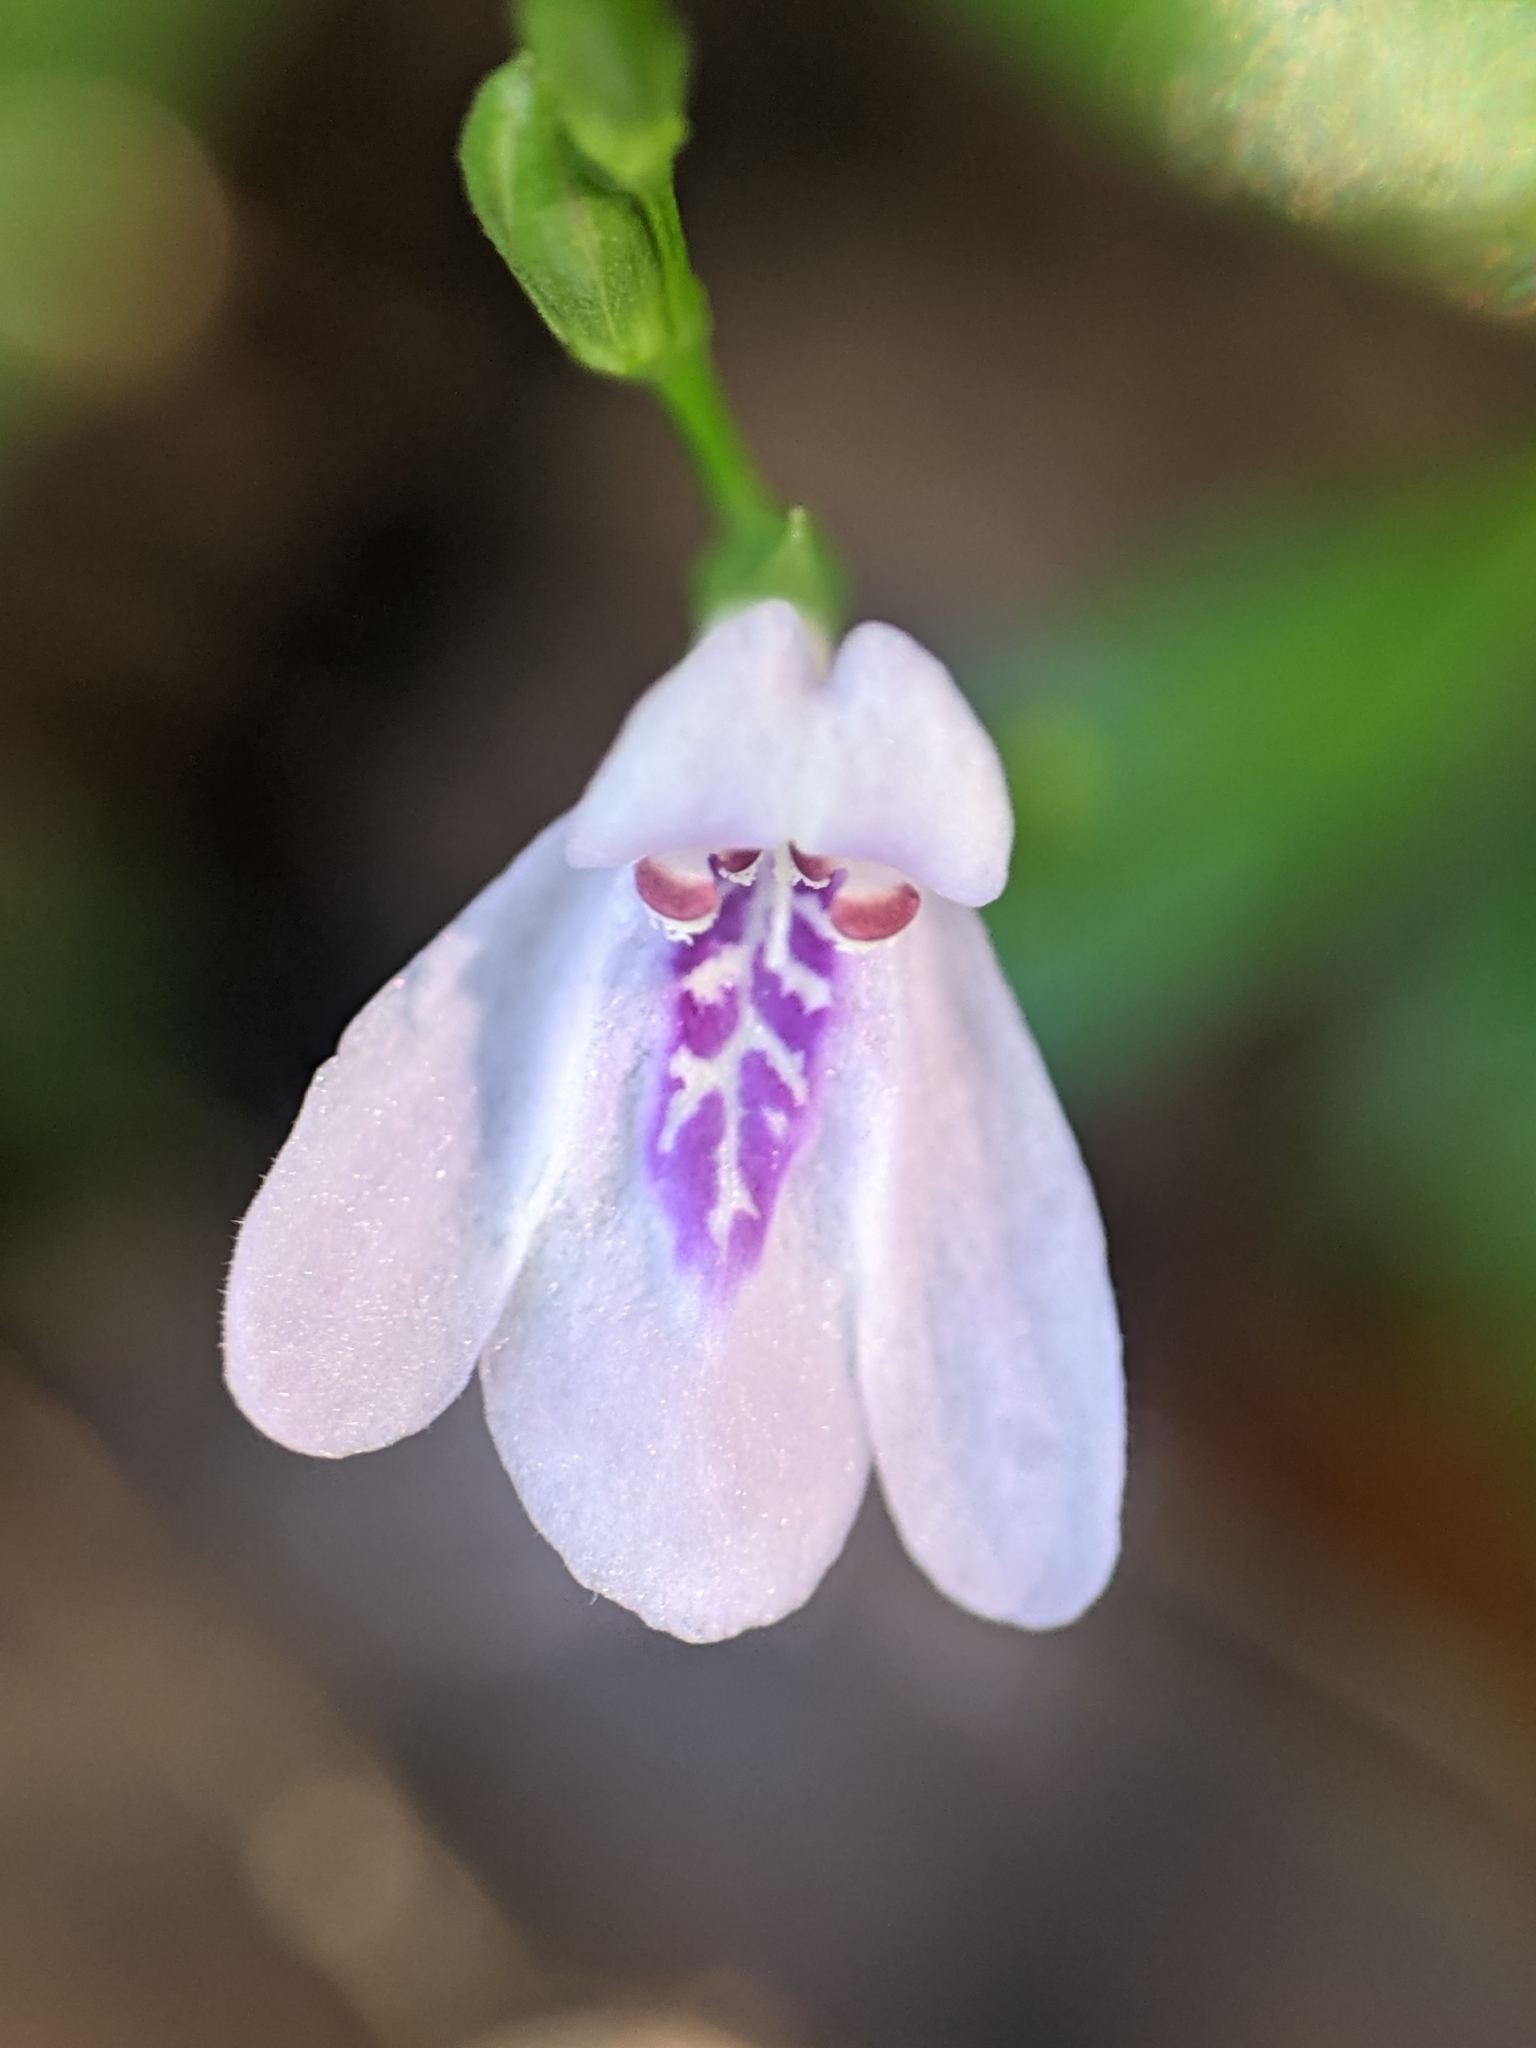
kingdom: Plantae
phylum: Tracheophyta
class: Magnoliopsida
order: Lamiales
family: Acanthaceae
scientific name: Acanthaceae
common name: Acanthaceae
